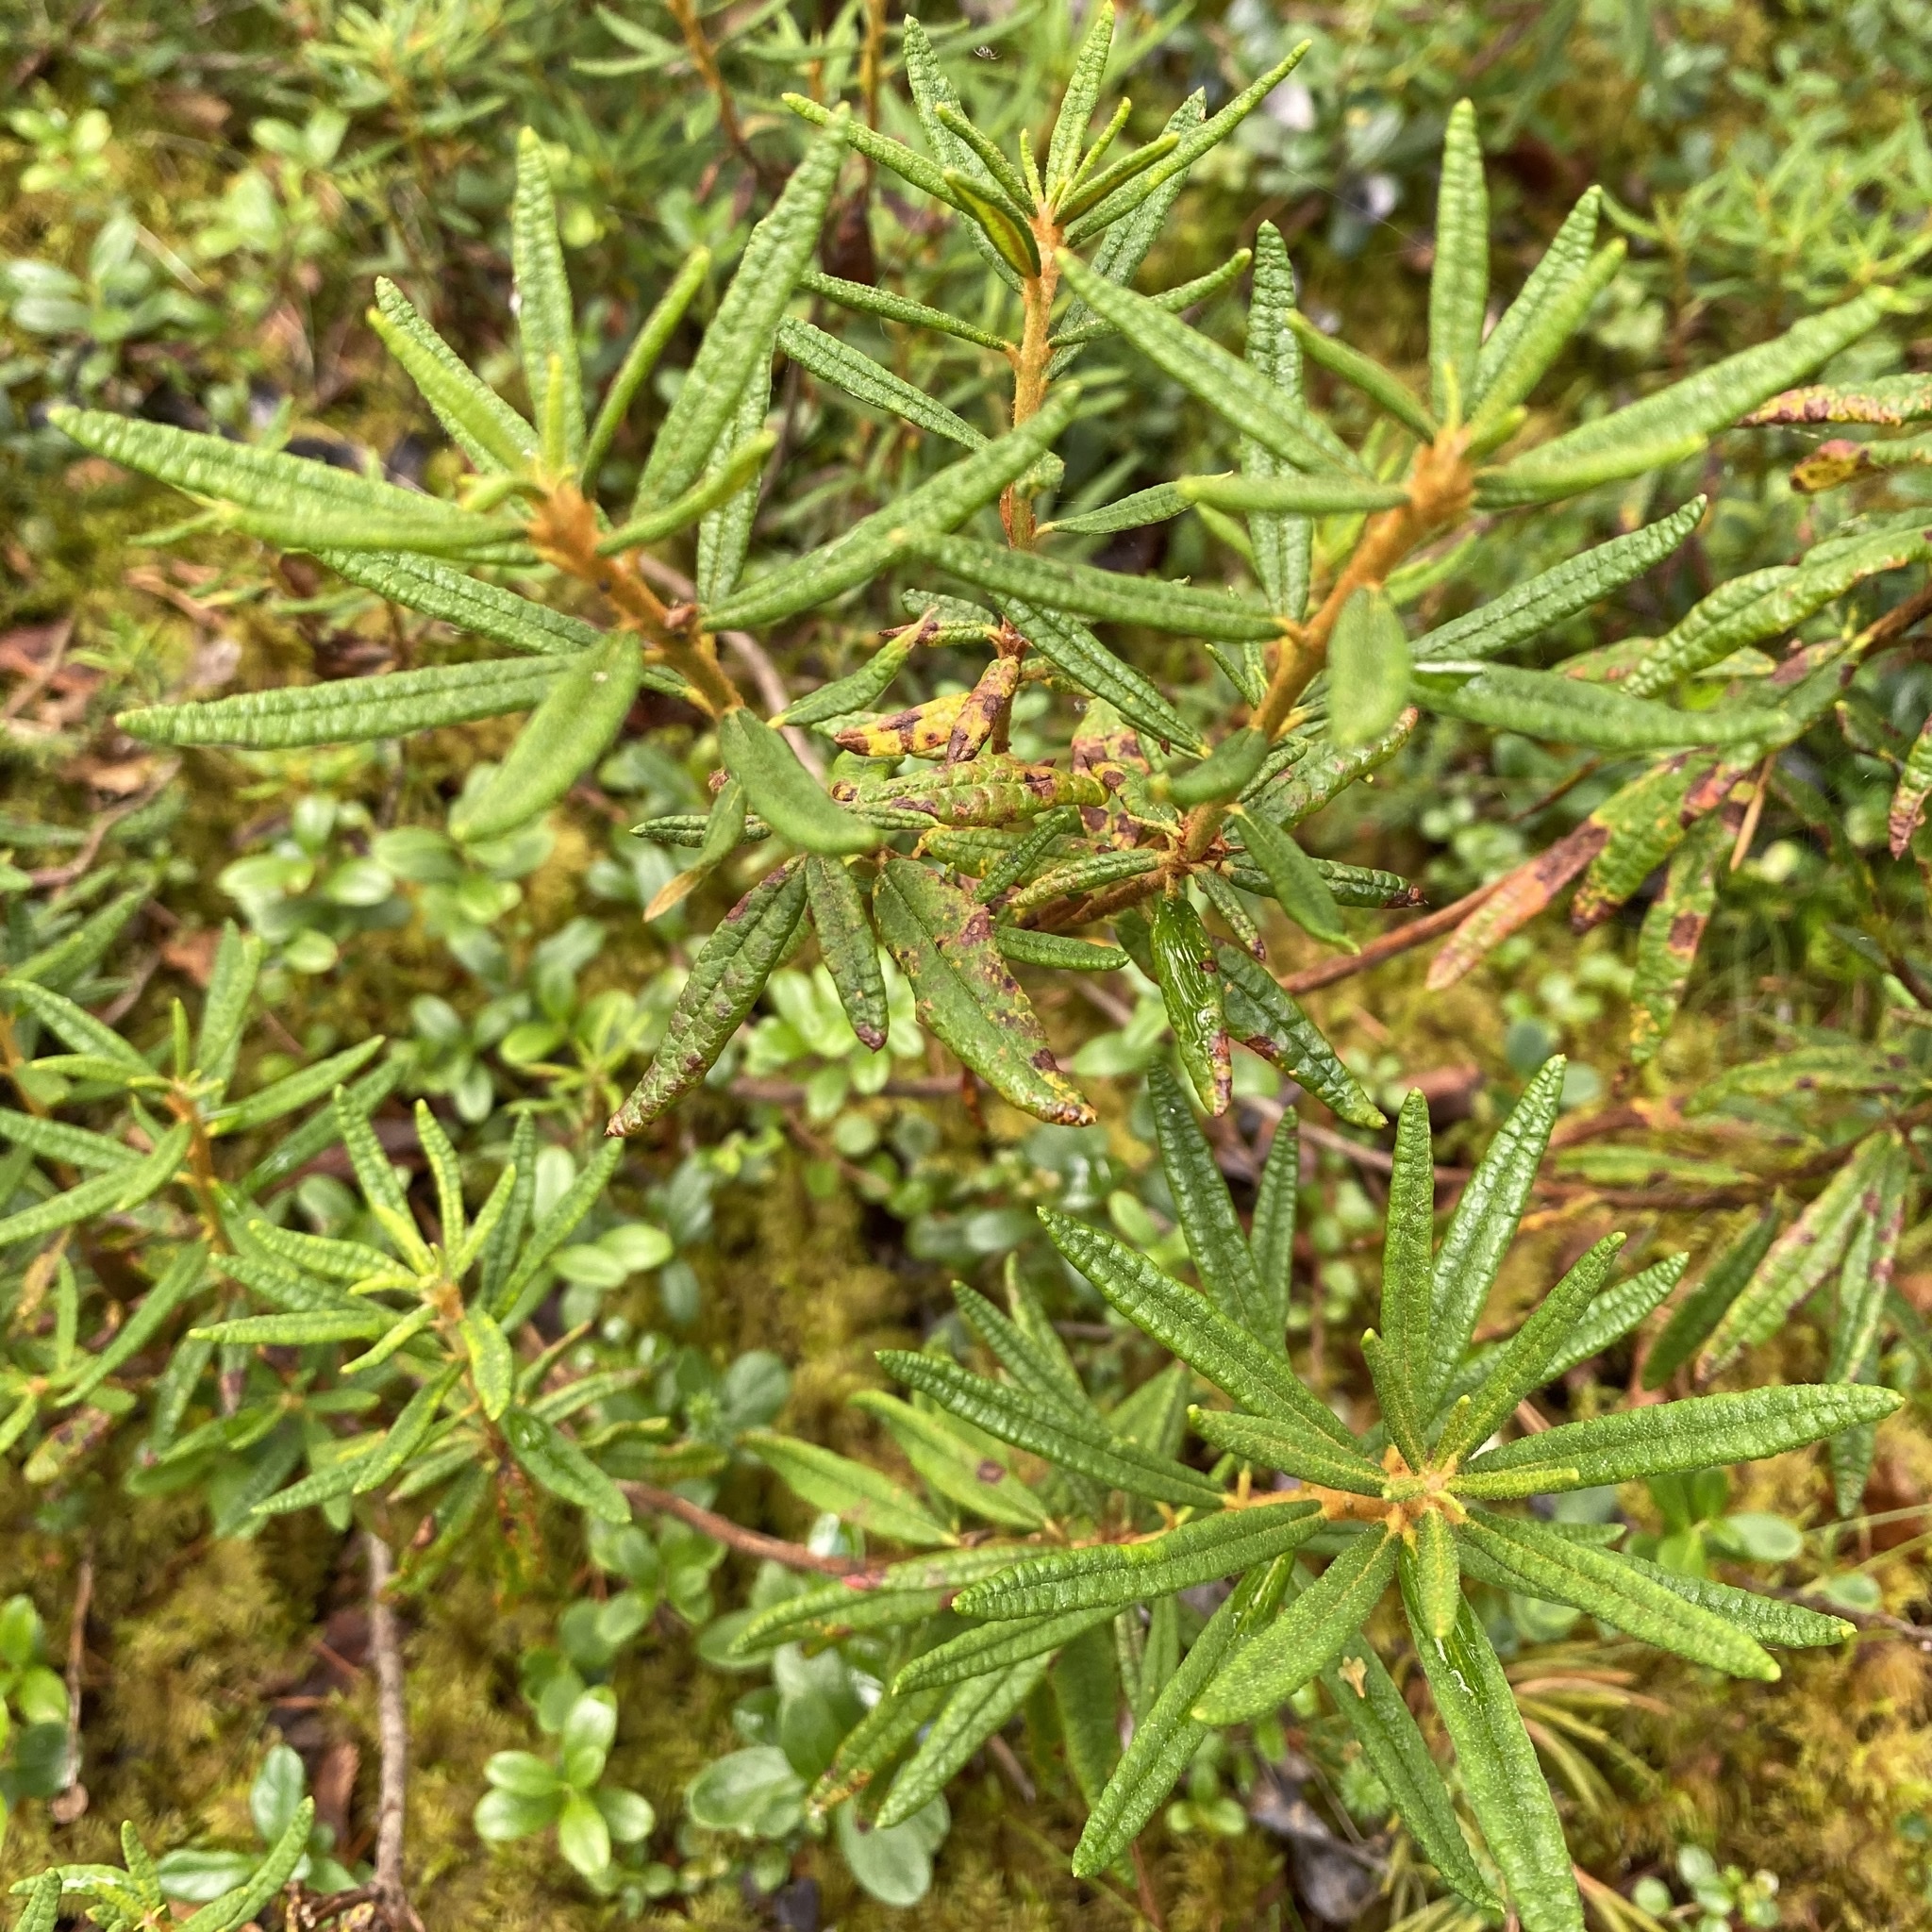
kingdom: Plantae
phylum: Tracheophyta
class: Magnoliopsida
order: Ericales
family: Ericaceae
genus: Rhododendron
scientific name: Rhododendron tomentosum
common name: Marsh labrador tea
